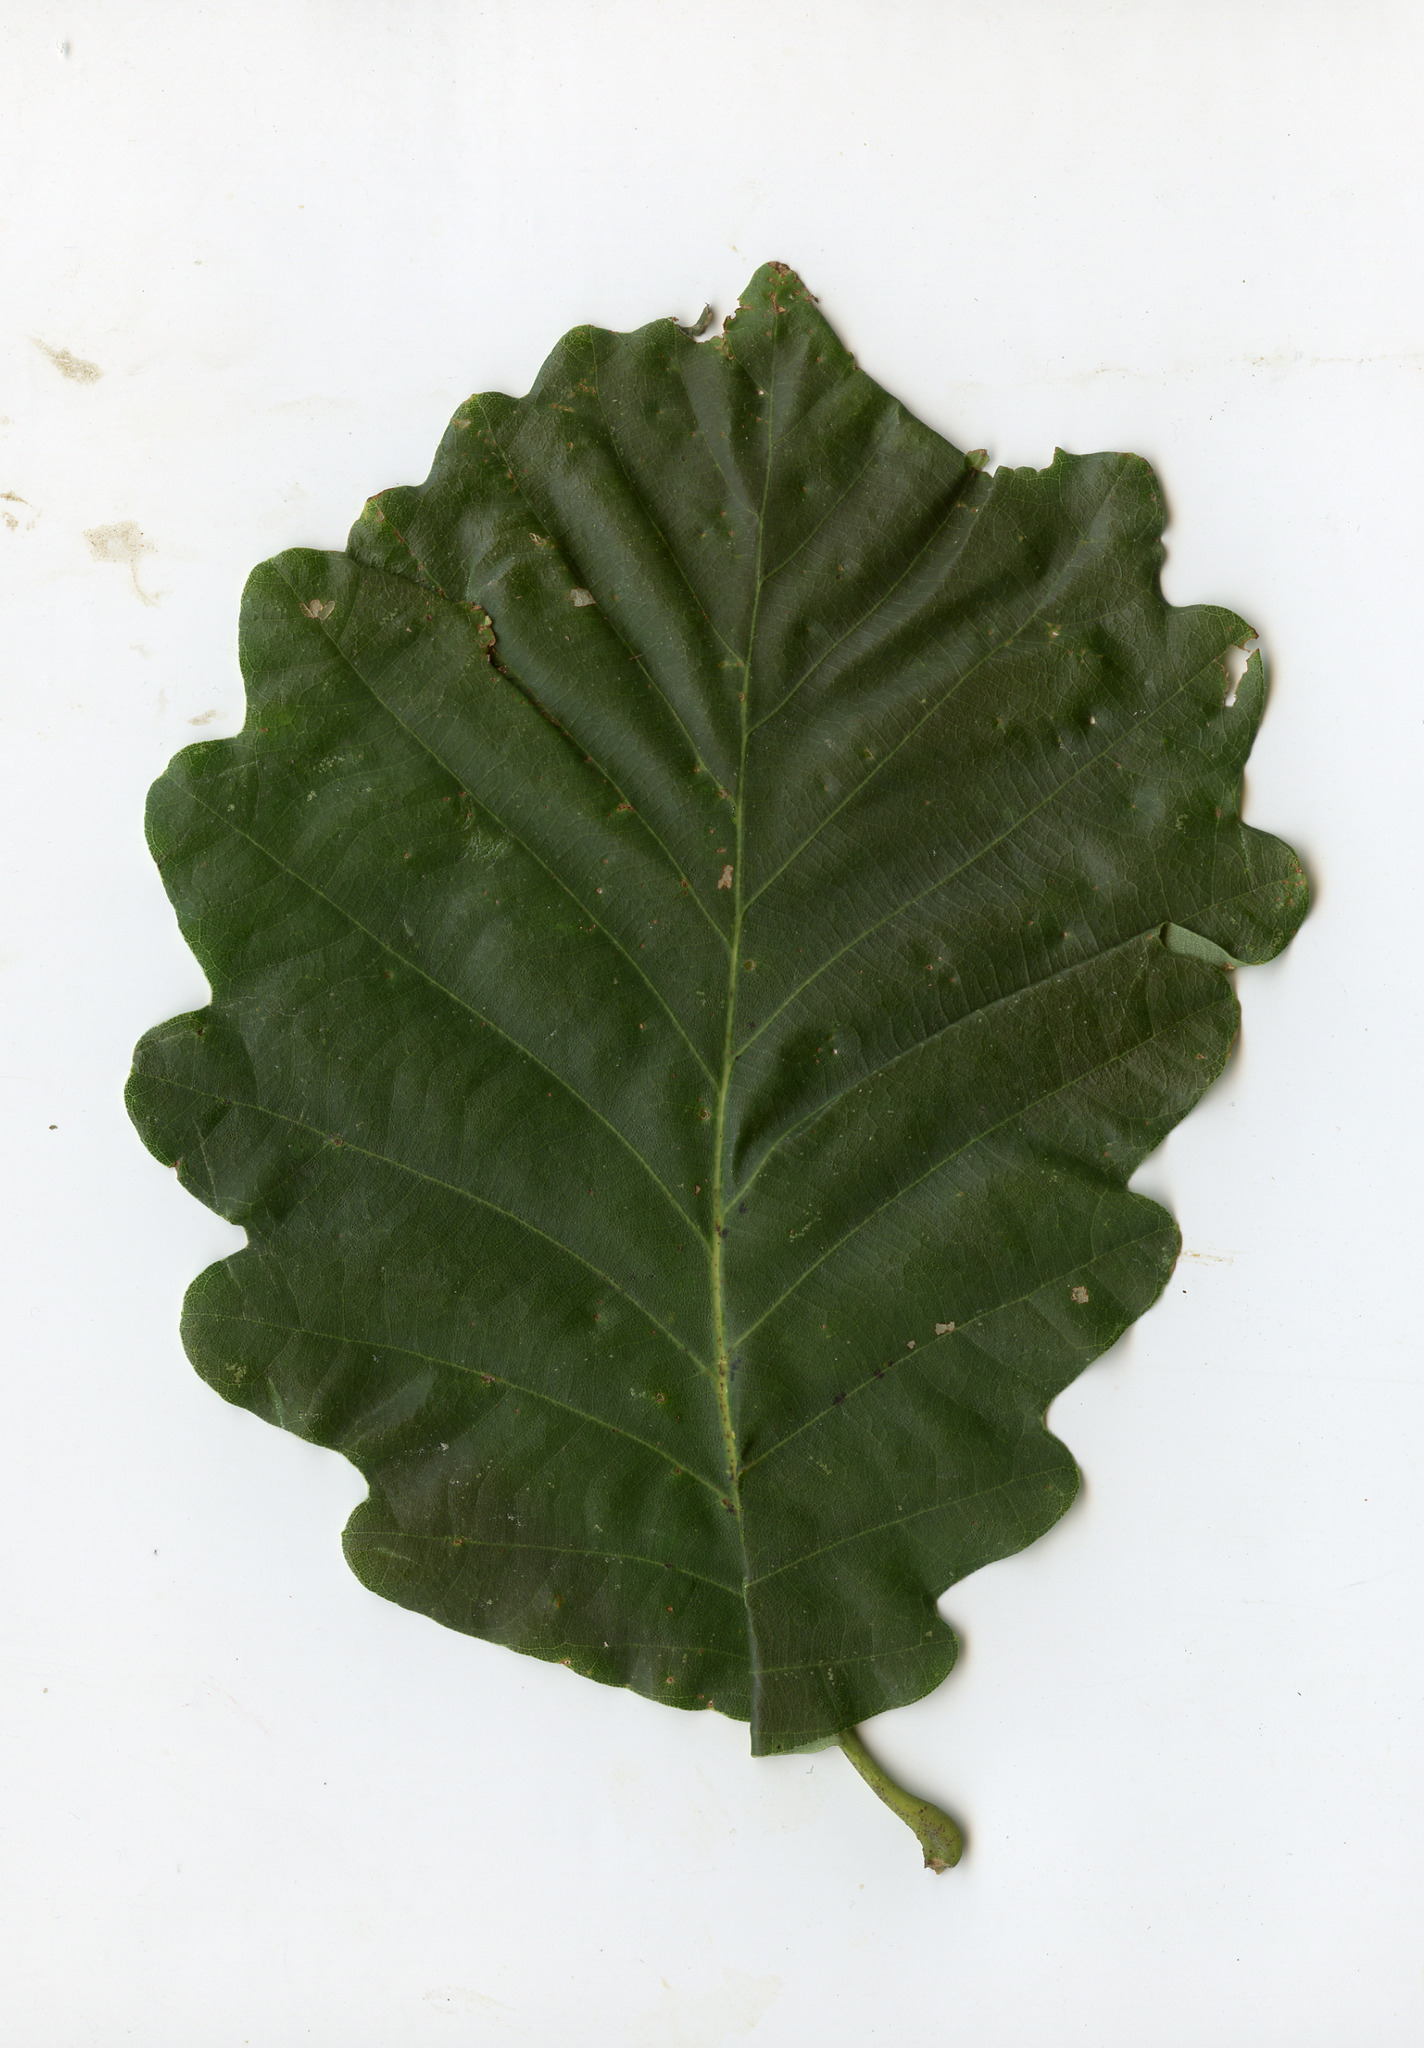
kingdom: Plantae
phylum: Tracheophyta
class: Magnoliopsida
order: Fagales
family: Fagaceae
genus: Quercus
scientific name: Quercus montana
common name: Chestnut oak
